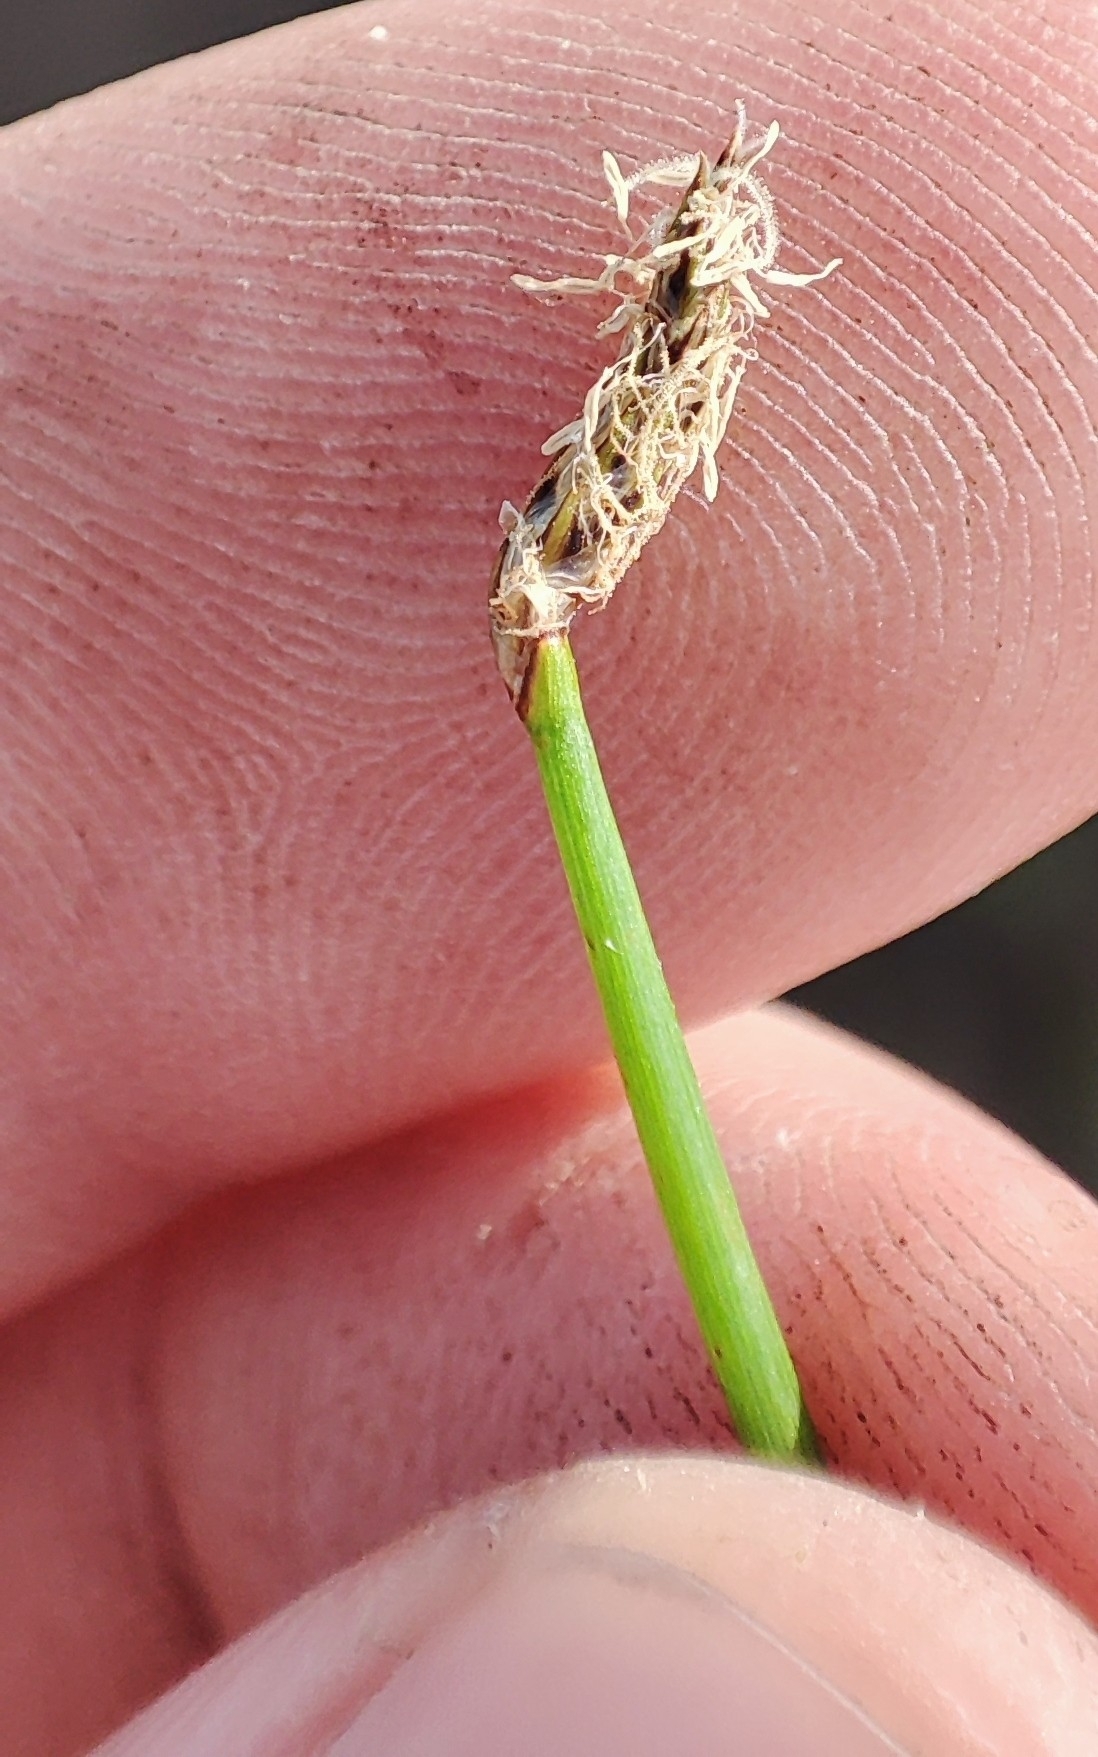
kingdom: Plantae
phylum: Tracheophyta
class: Liliopsida
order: Poales
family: Cyperaceae
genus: Eleocharis
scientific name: Eleocharis palustris
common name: Common spike-rush
